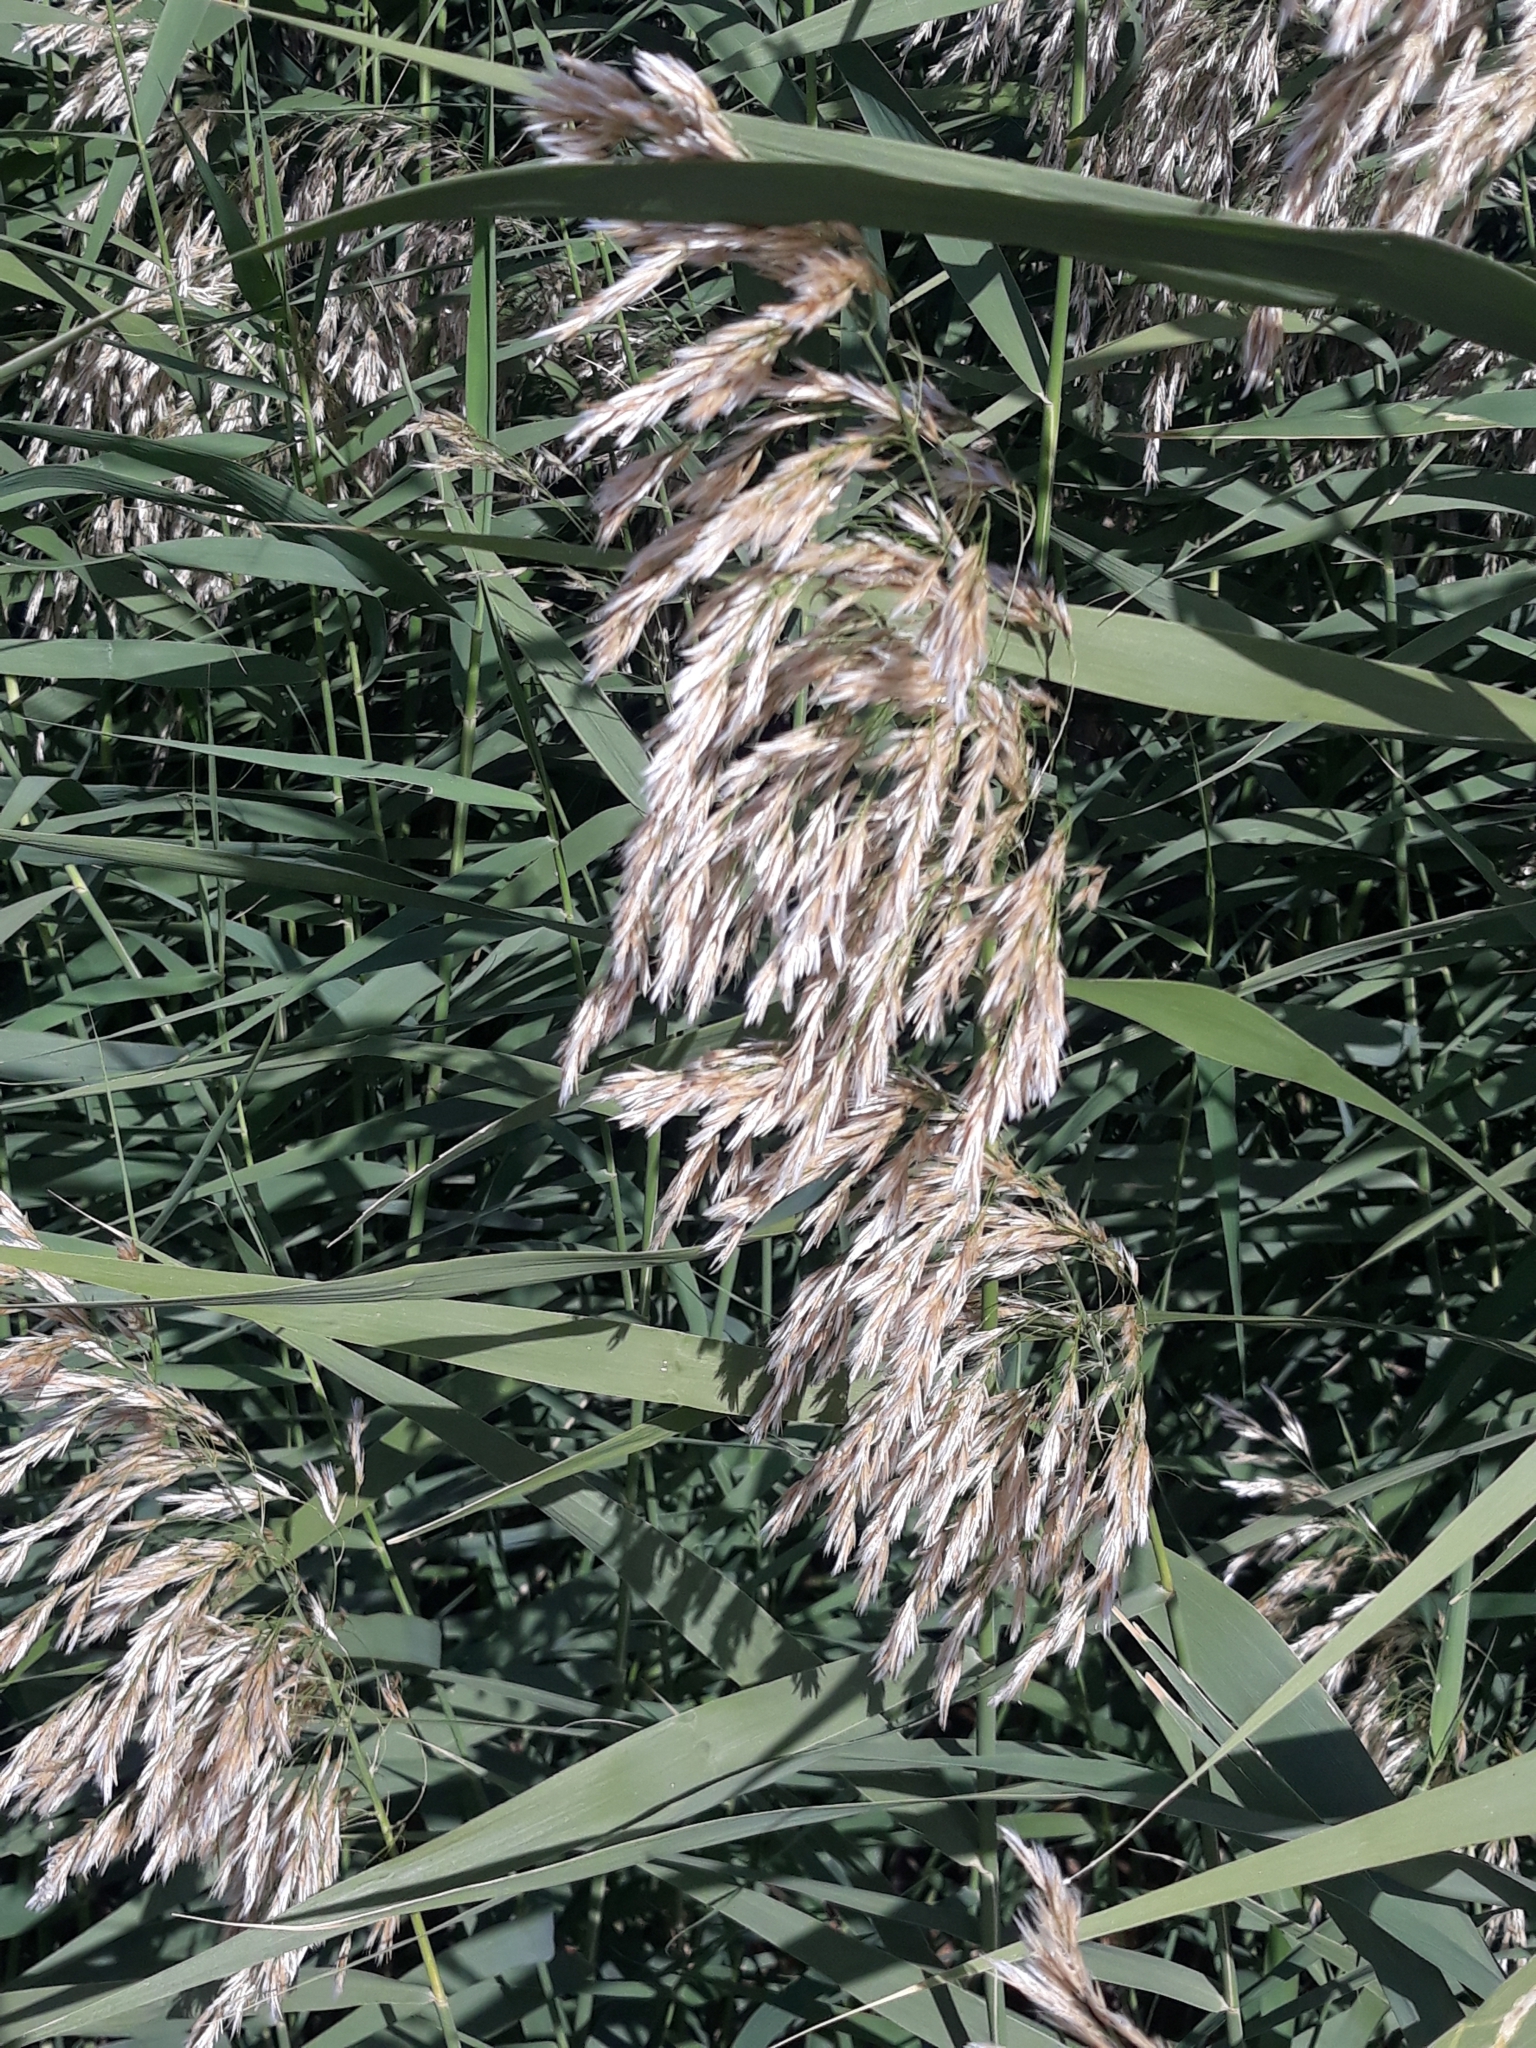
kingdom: Plantae
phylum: Tracheophyta
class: Liliopsida
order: Poales
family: Poaceae
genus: Phragmites
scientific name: Phragmites australis
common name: Common reed
